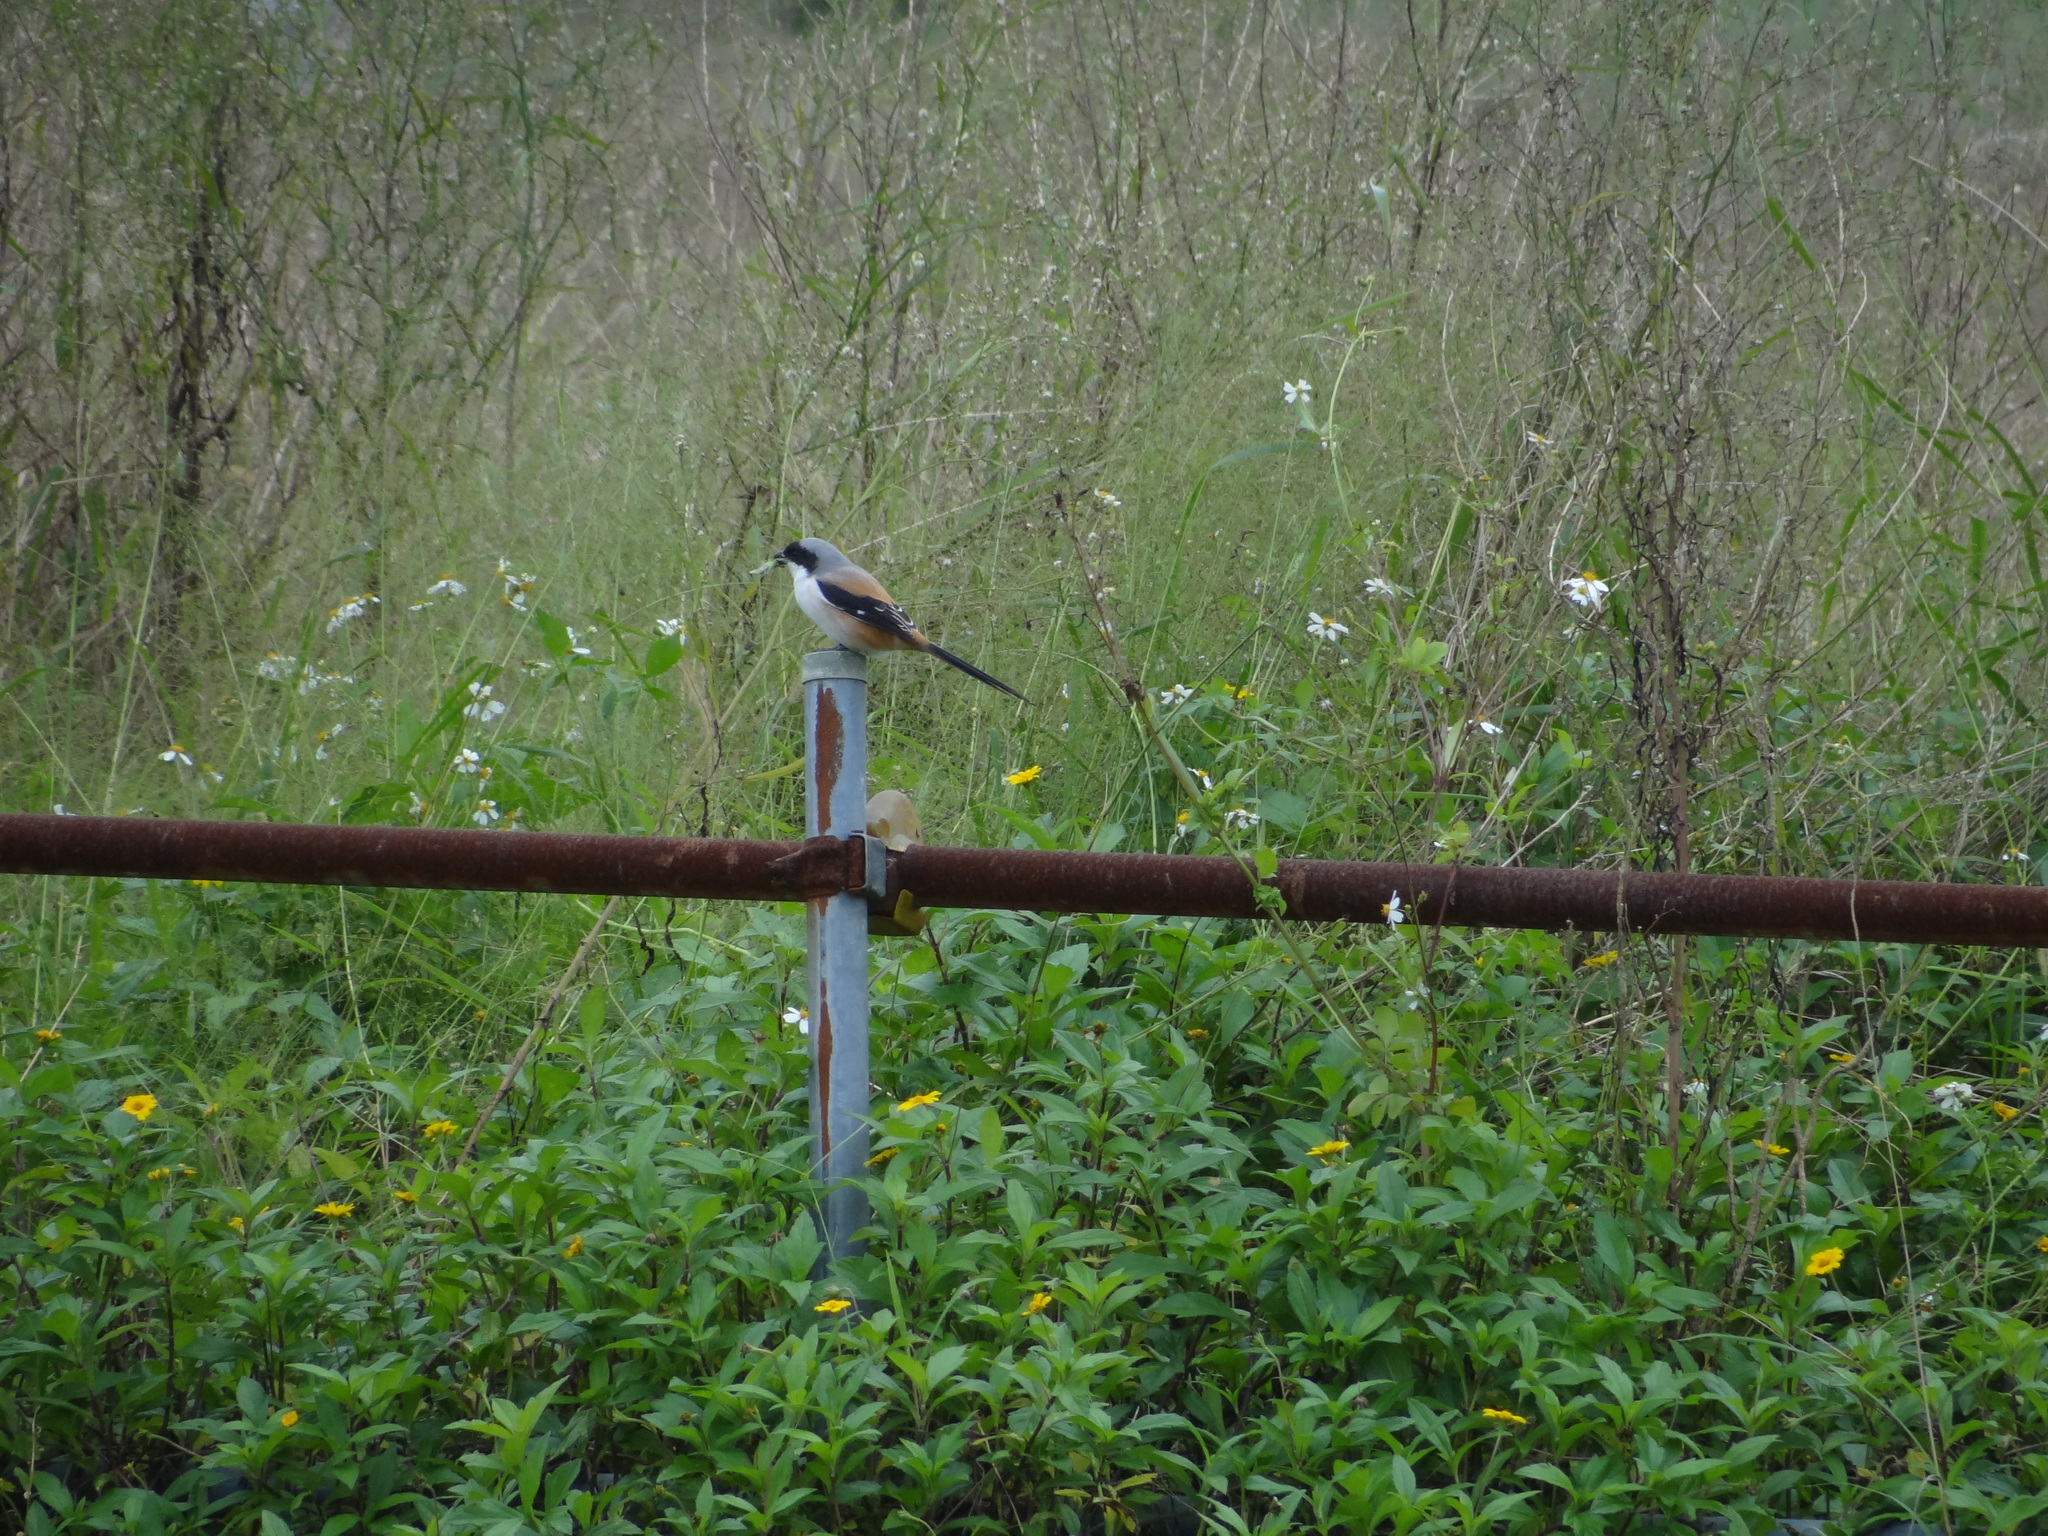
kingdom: Animalia
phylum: Chordata
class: Aves
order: Passeriformes
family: Laniidae
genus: Lanius
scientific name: Lanius schach
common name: Long-tailed shrike
